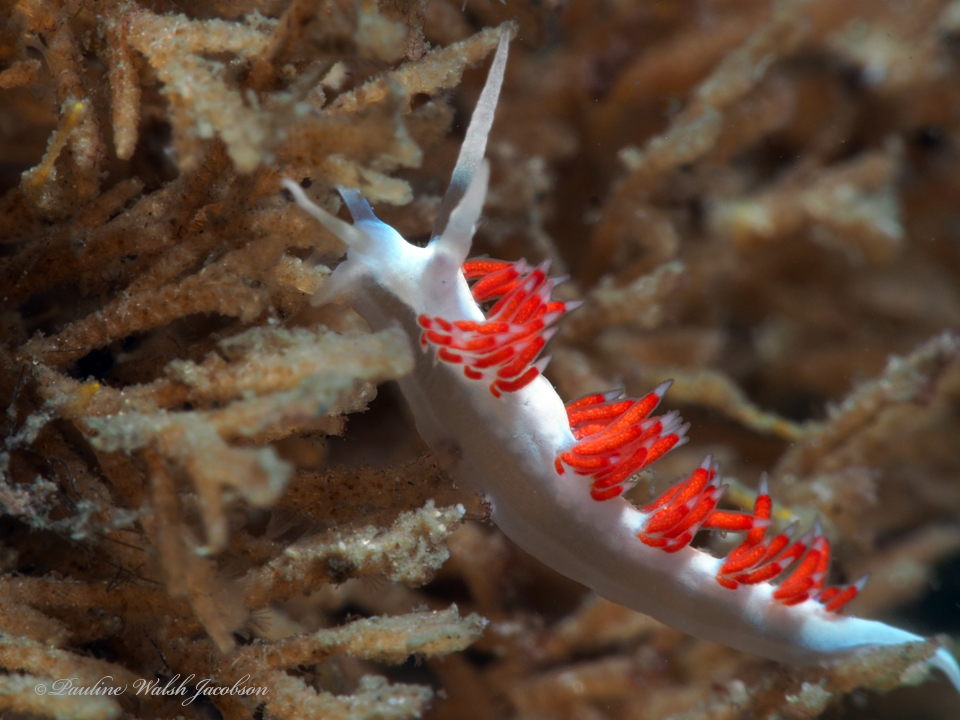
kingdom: Animalia
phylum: Mollusca
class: Gastropoda
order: Nudibranchia
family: Flabellinidae
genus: Flabellina
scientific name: Flabellina dushia
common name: Dushia flabellina
